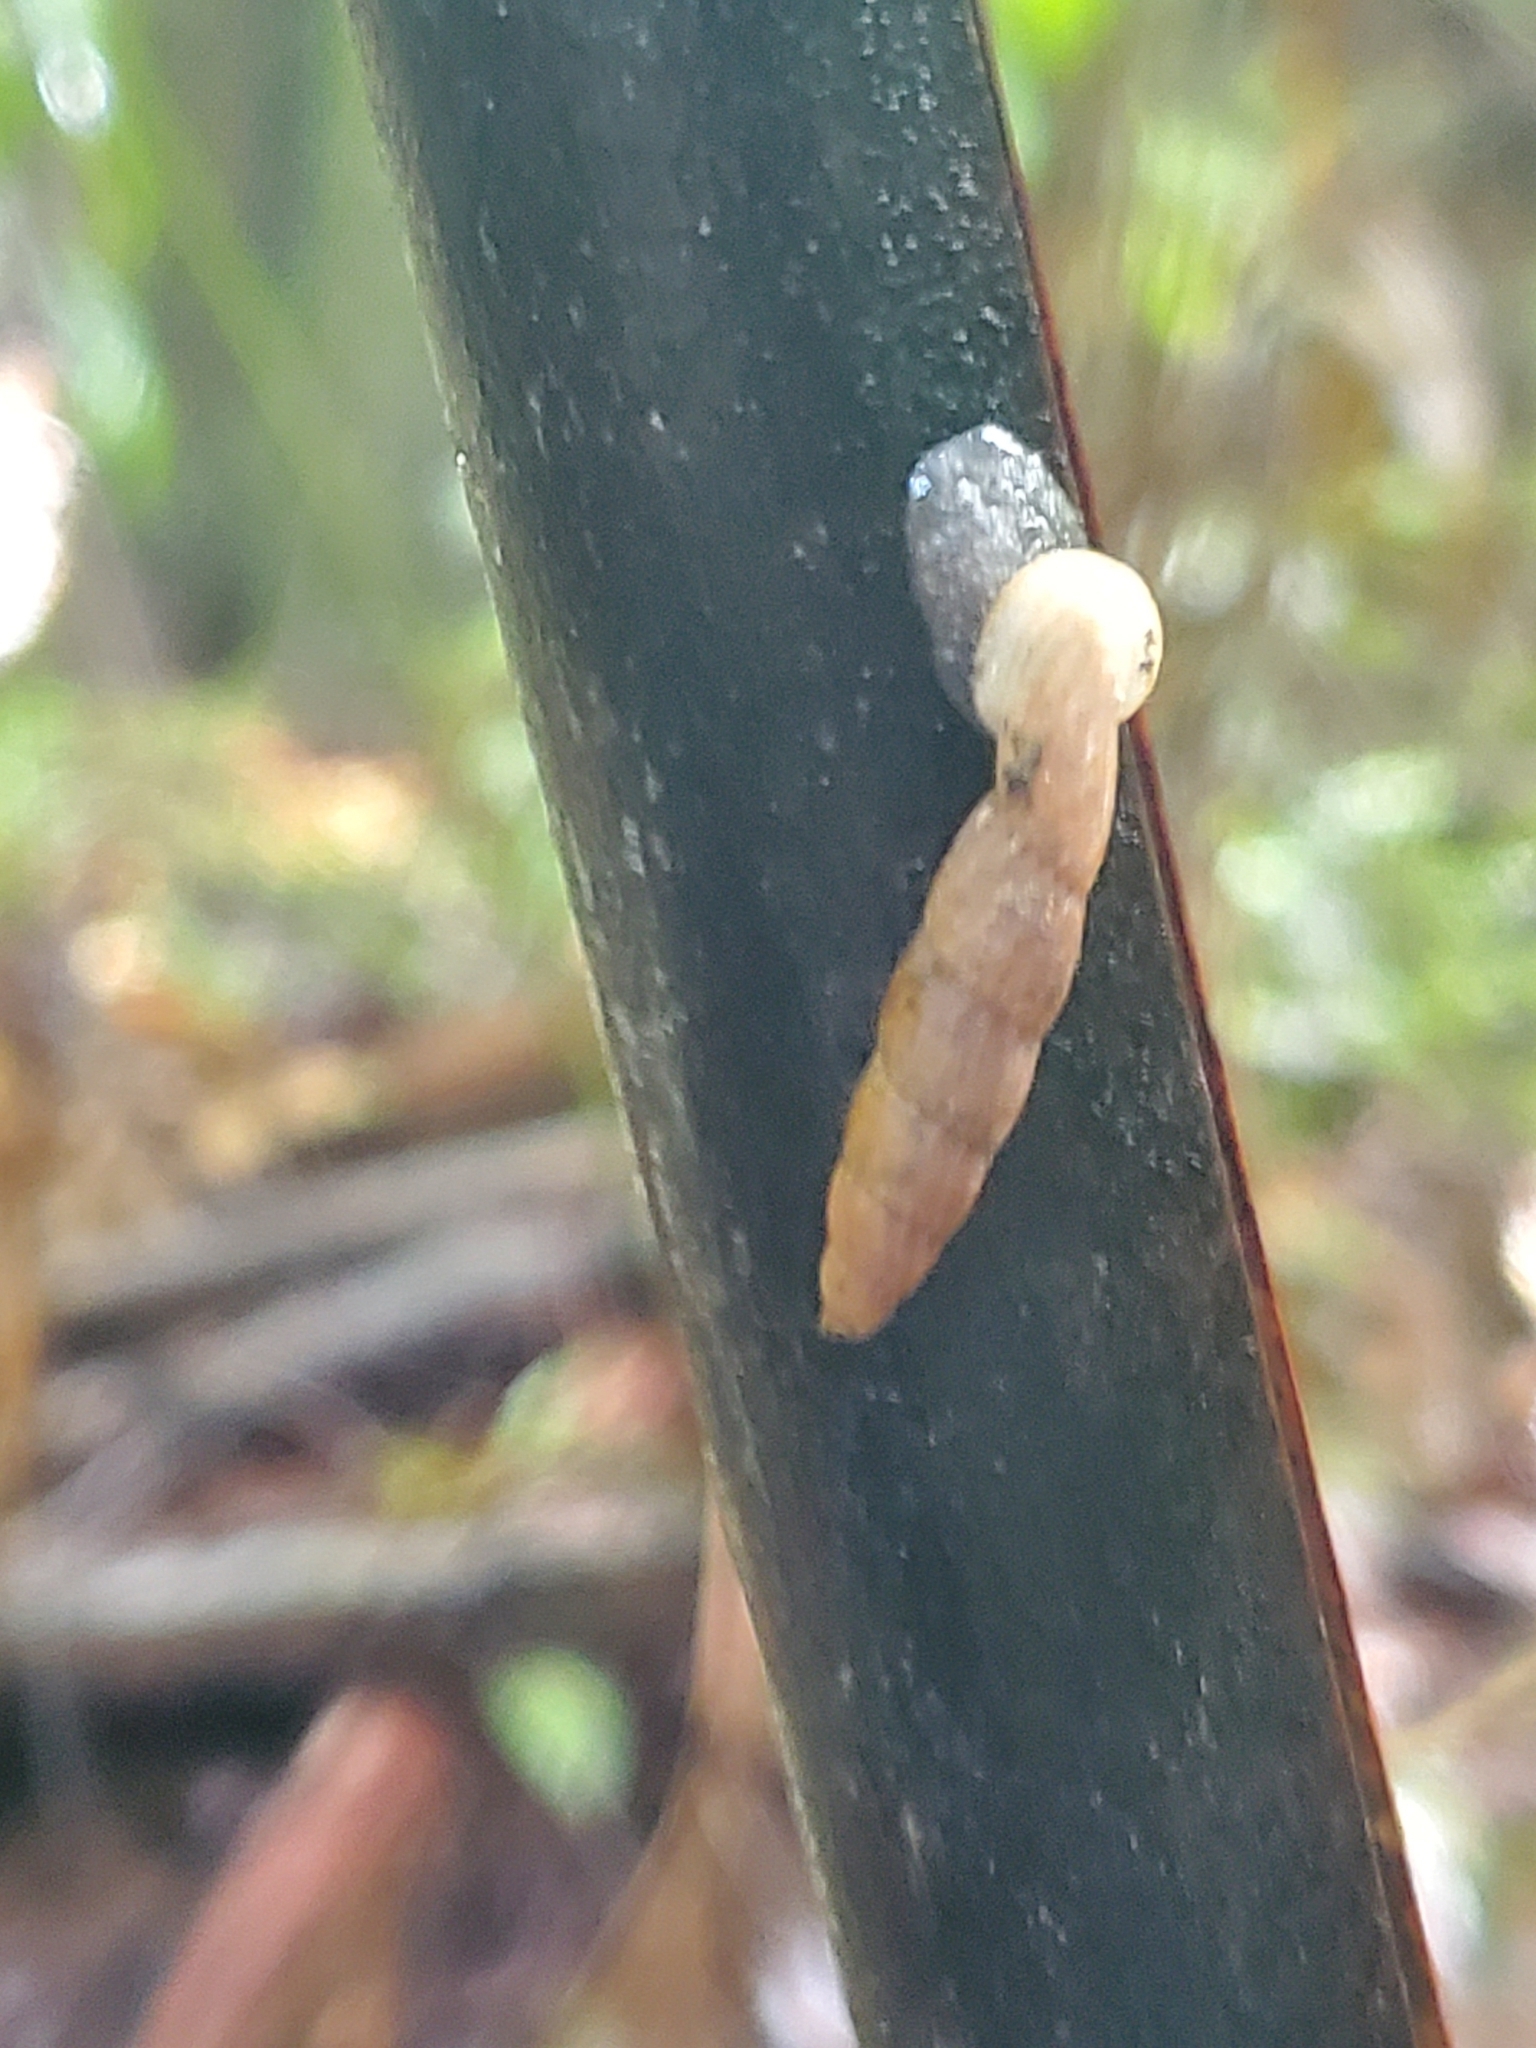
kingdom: Animalia
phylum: Mollusca
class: Gastropoda
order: Stylommatophora
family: Clausiliidae
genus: Nenia
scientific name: Nenia tridens
